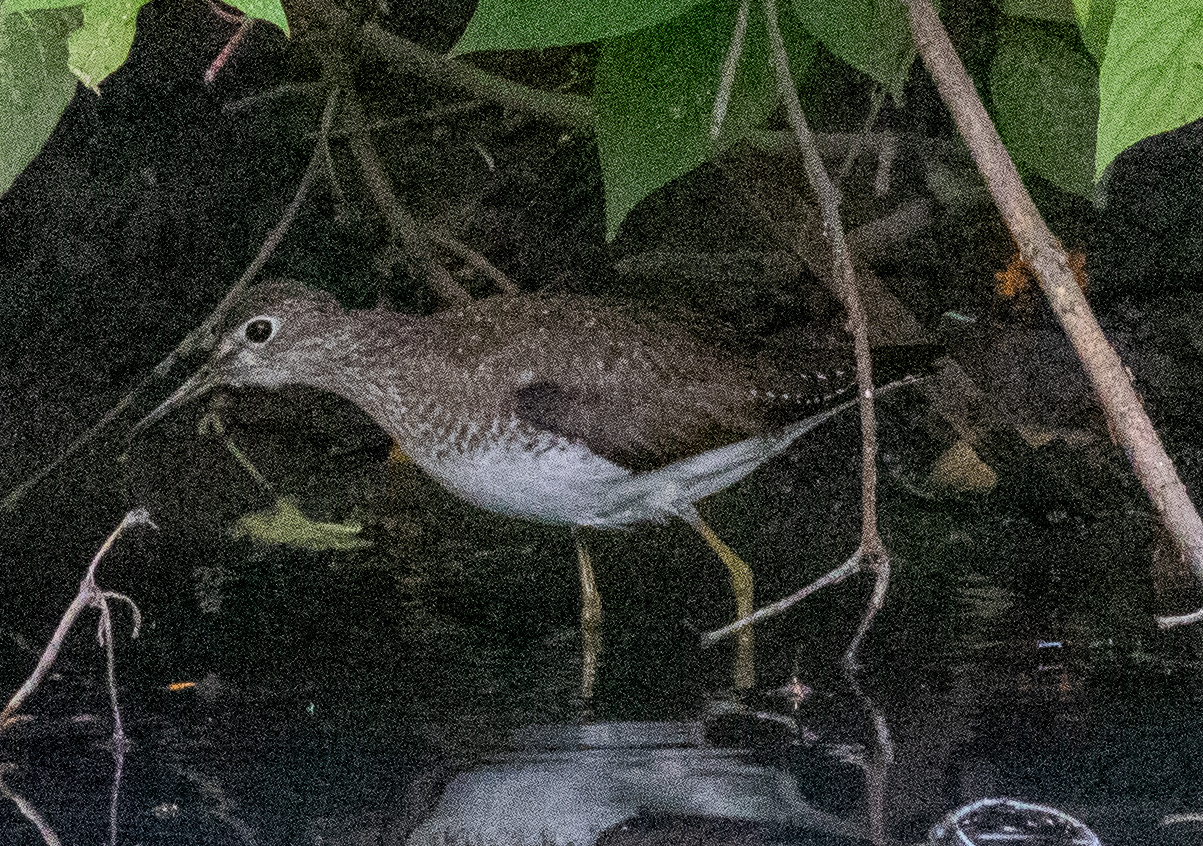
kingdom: Animalia
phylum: Chordata
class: Aves
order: Charadriiformes
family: Scolopacidae
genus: Tringa
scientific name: Tringa solitaria
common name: Solitary sandpiper
